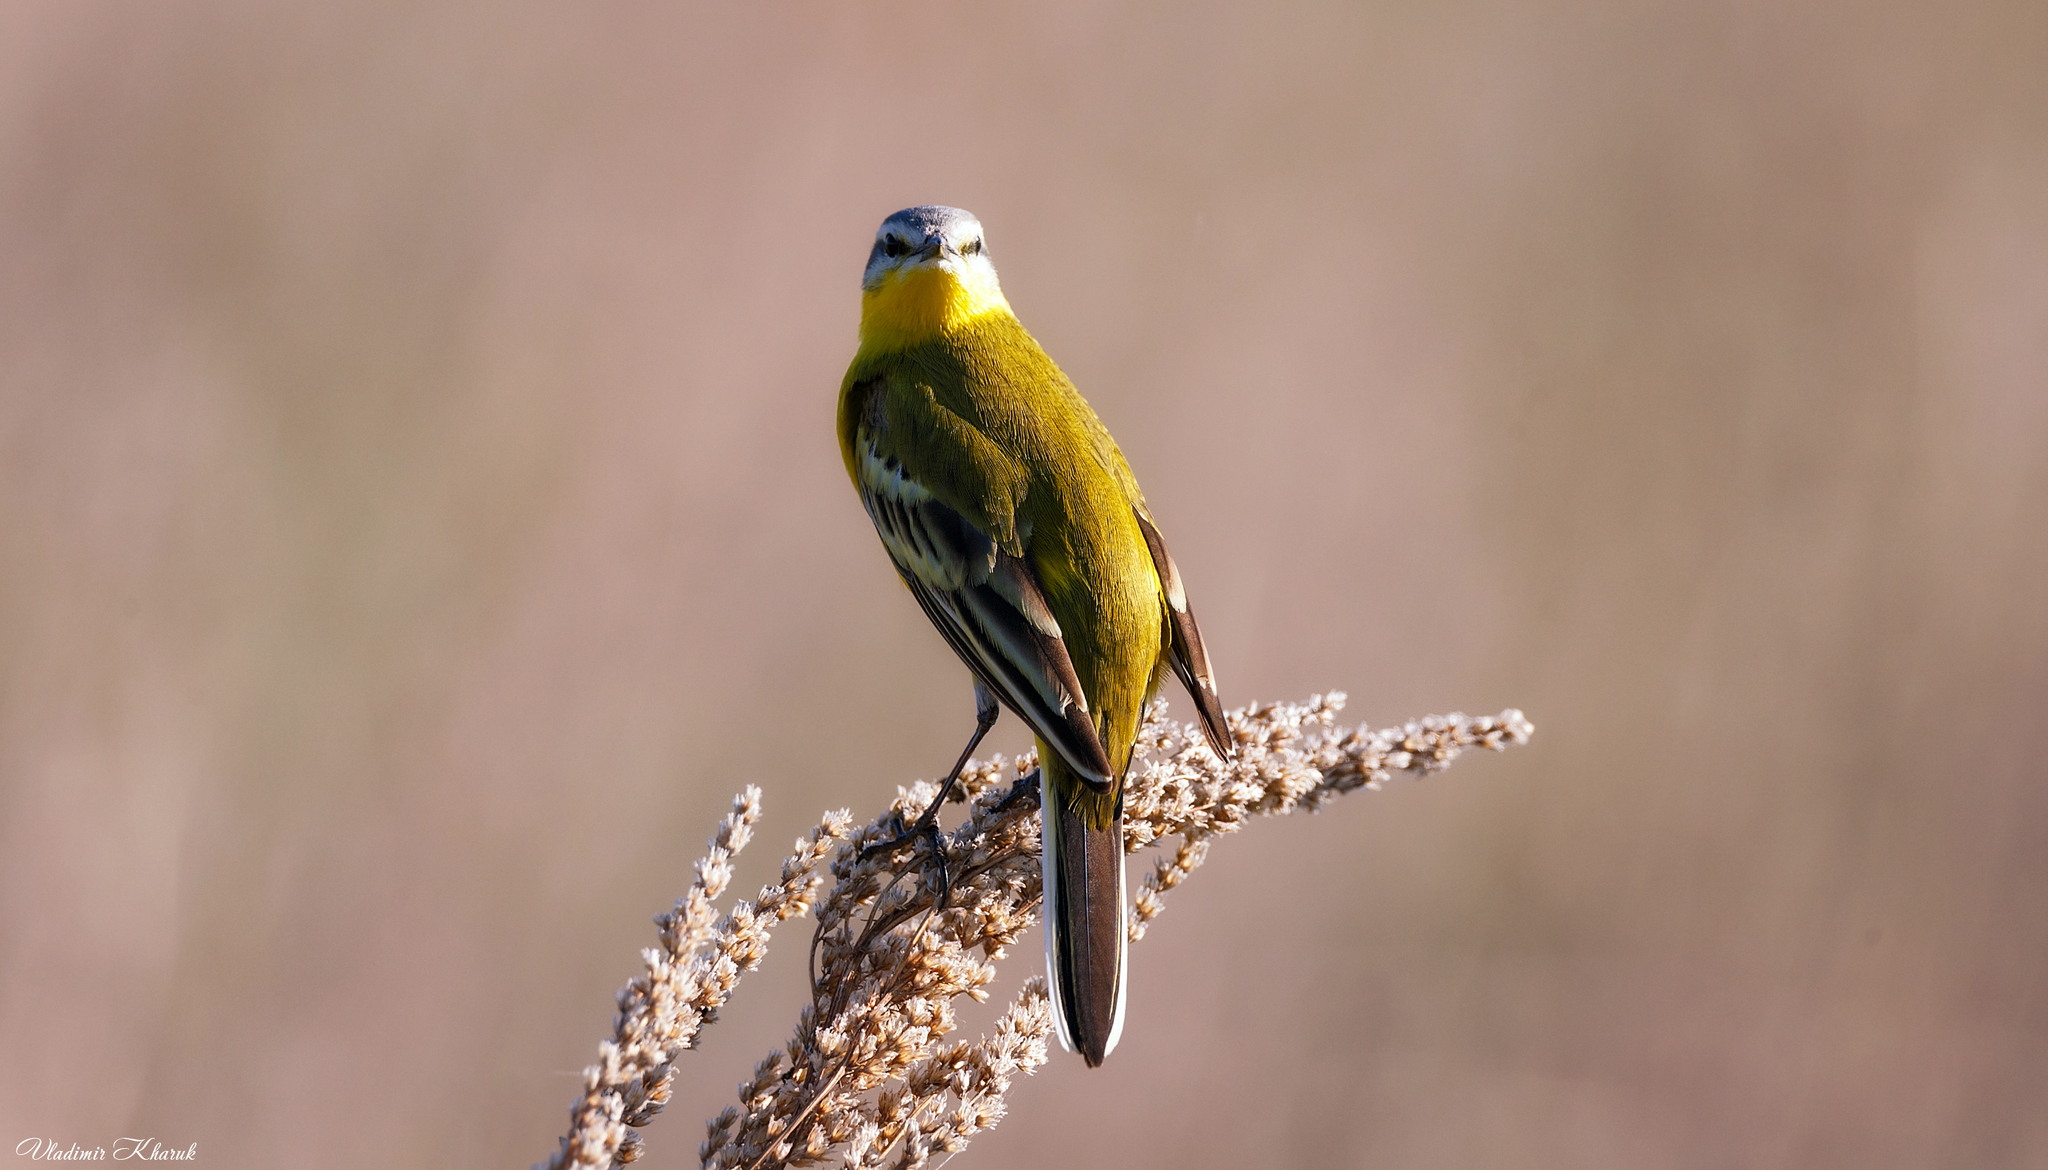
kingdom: Animalia
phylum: Chordata
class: Aves
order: Passeriformes
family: Motacillidae
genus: Motacilla
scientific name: Motacilla flava
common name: Western yellow wagtail
